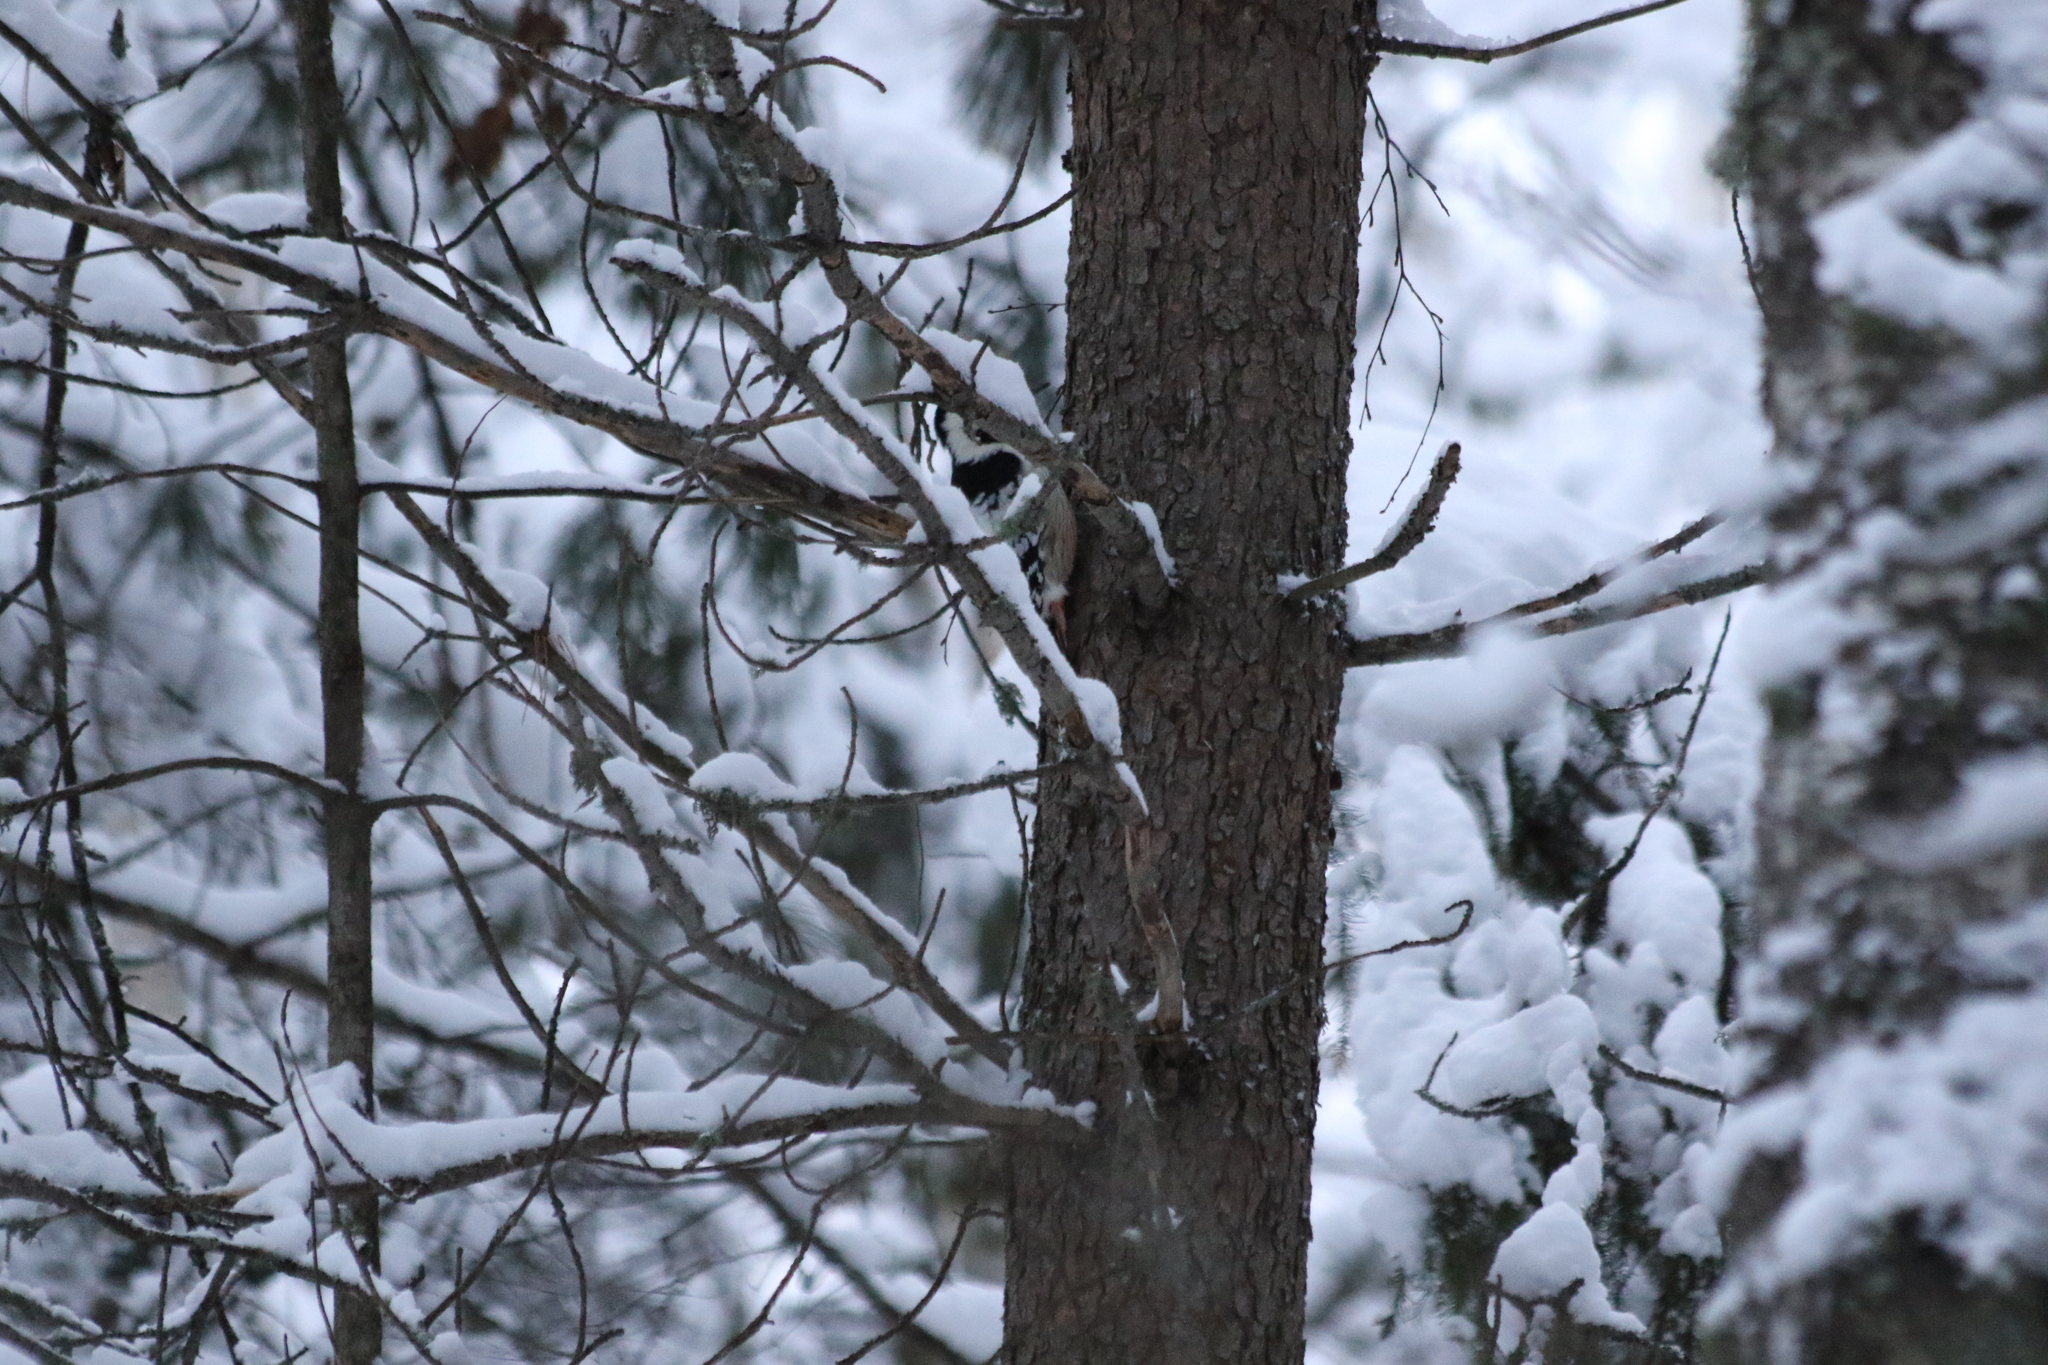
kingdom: Animalia
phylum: Chordata
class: Aves
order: Piciformes
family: Picidae
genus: Dendrocopos
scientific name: Dendrocopos leucotos
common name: White-backed woodpecker
